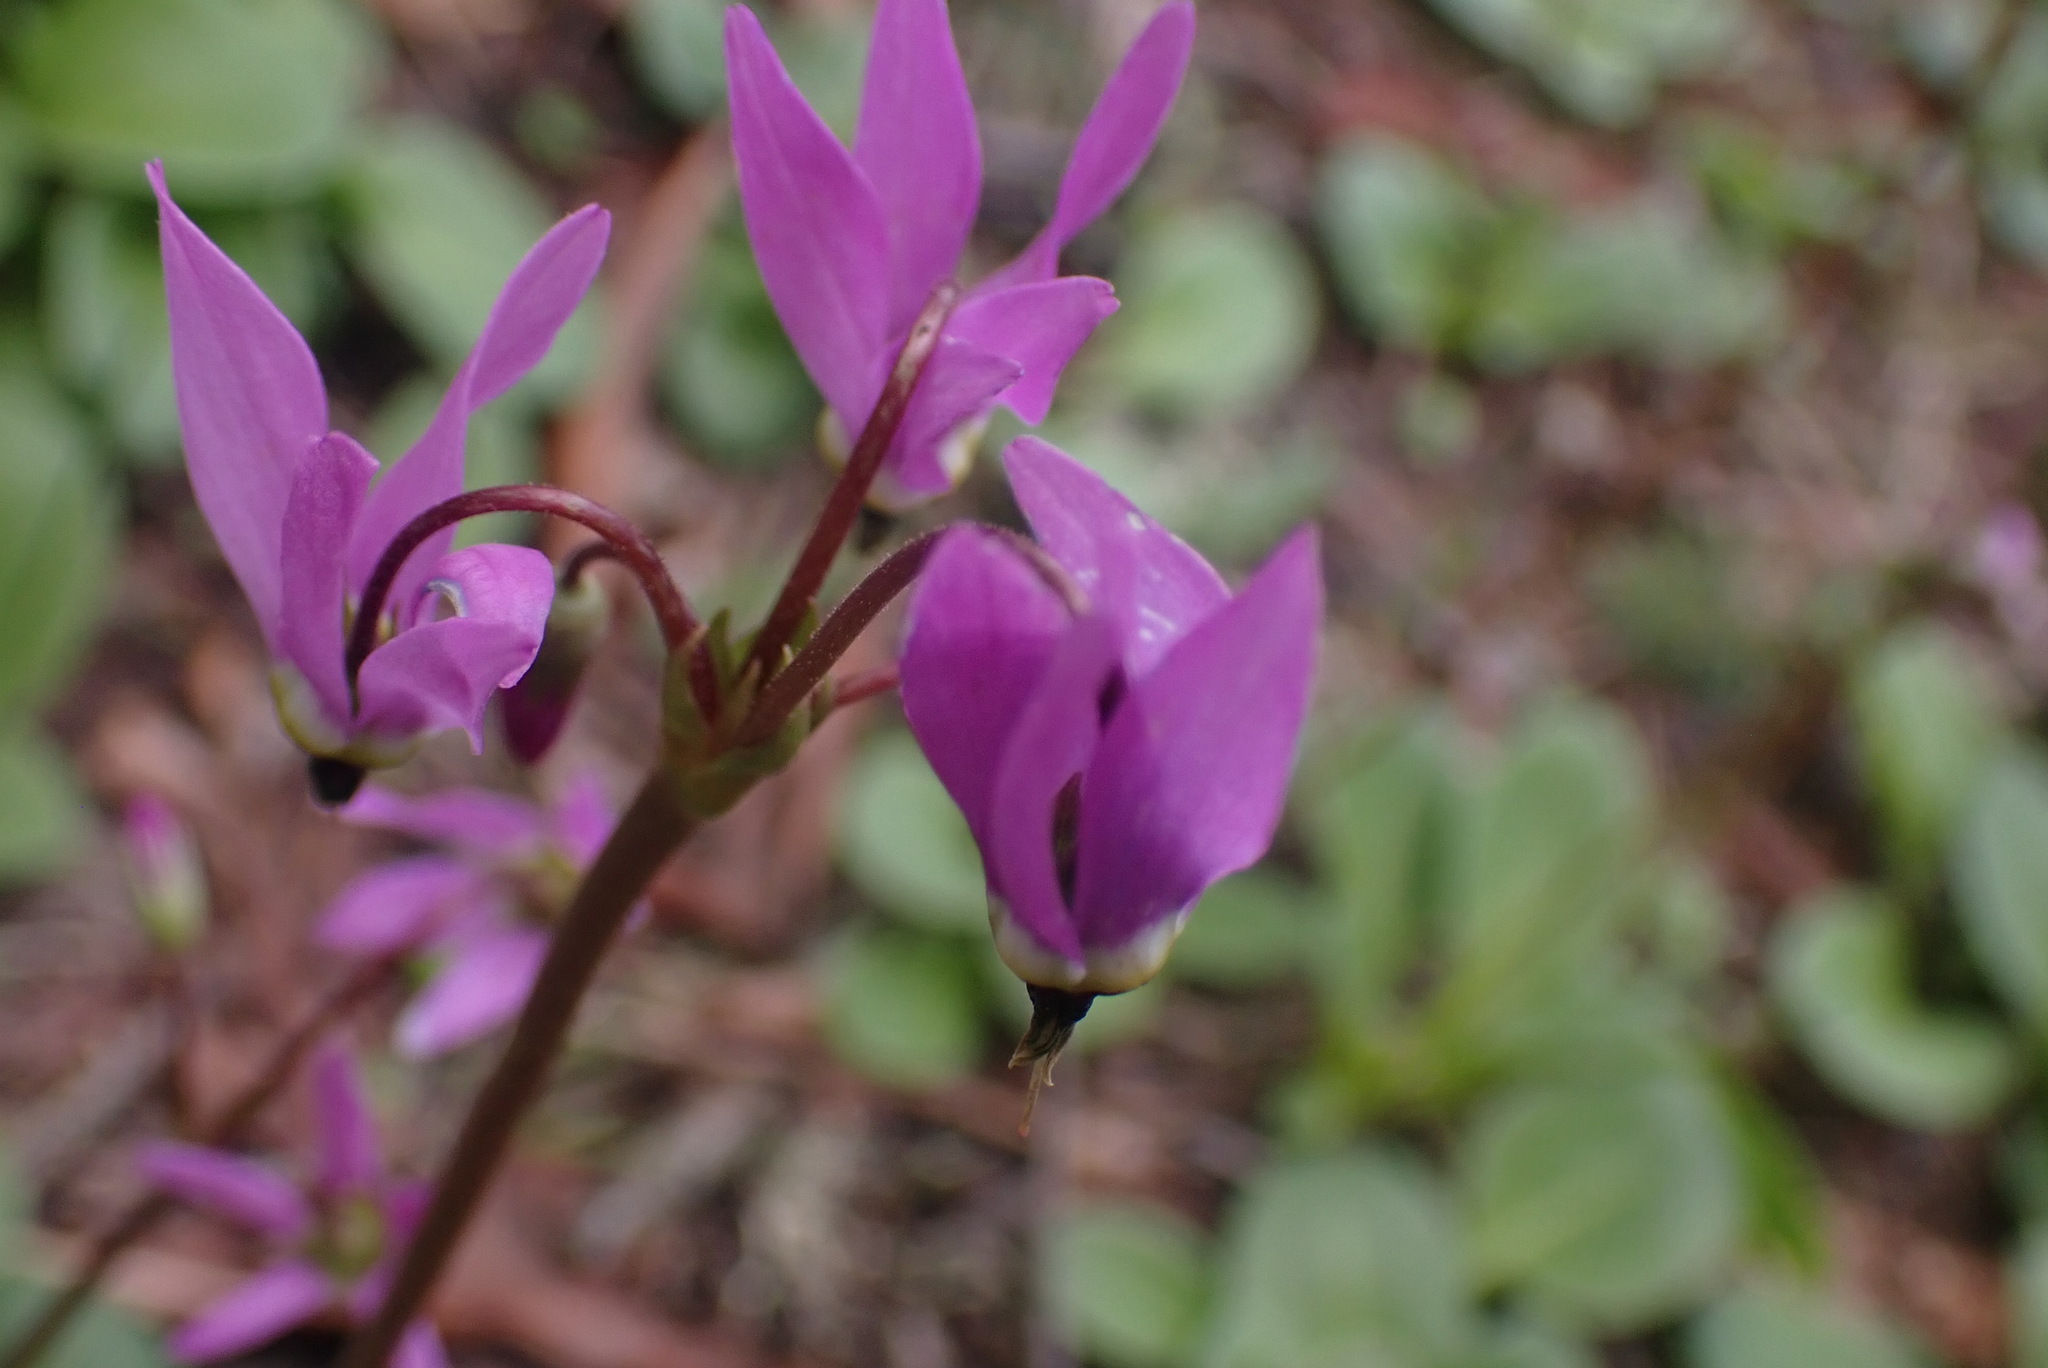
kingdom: Plantae
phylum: Tracheophyta
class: Magnoliopsida
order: Ericales
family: Primulaceae
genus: Dodecatheon
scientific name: Dodecatheon hendersonii
